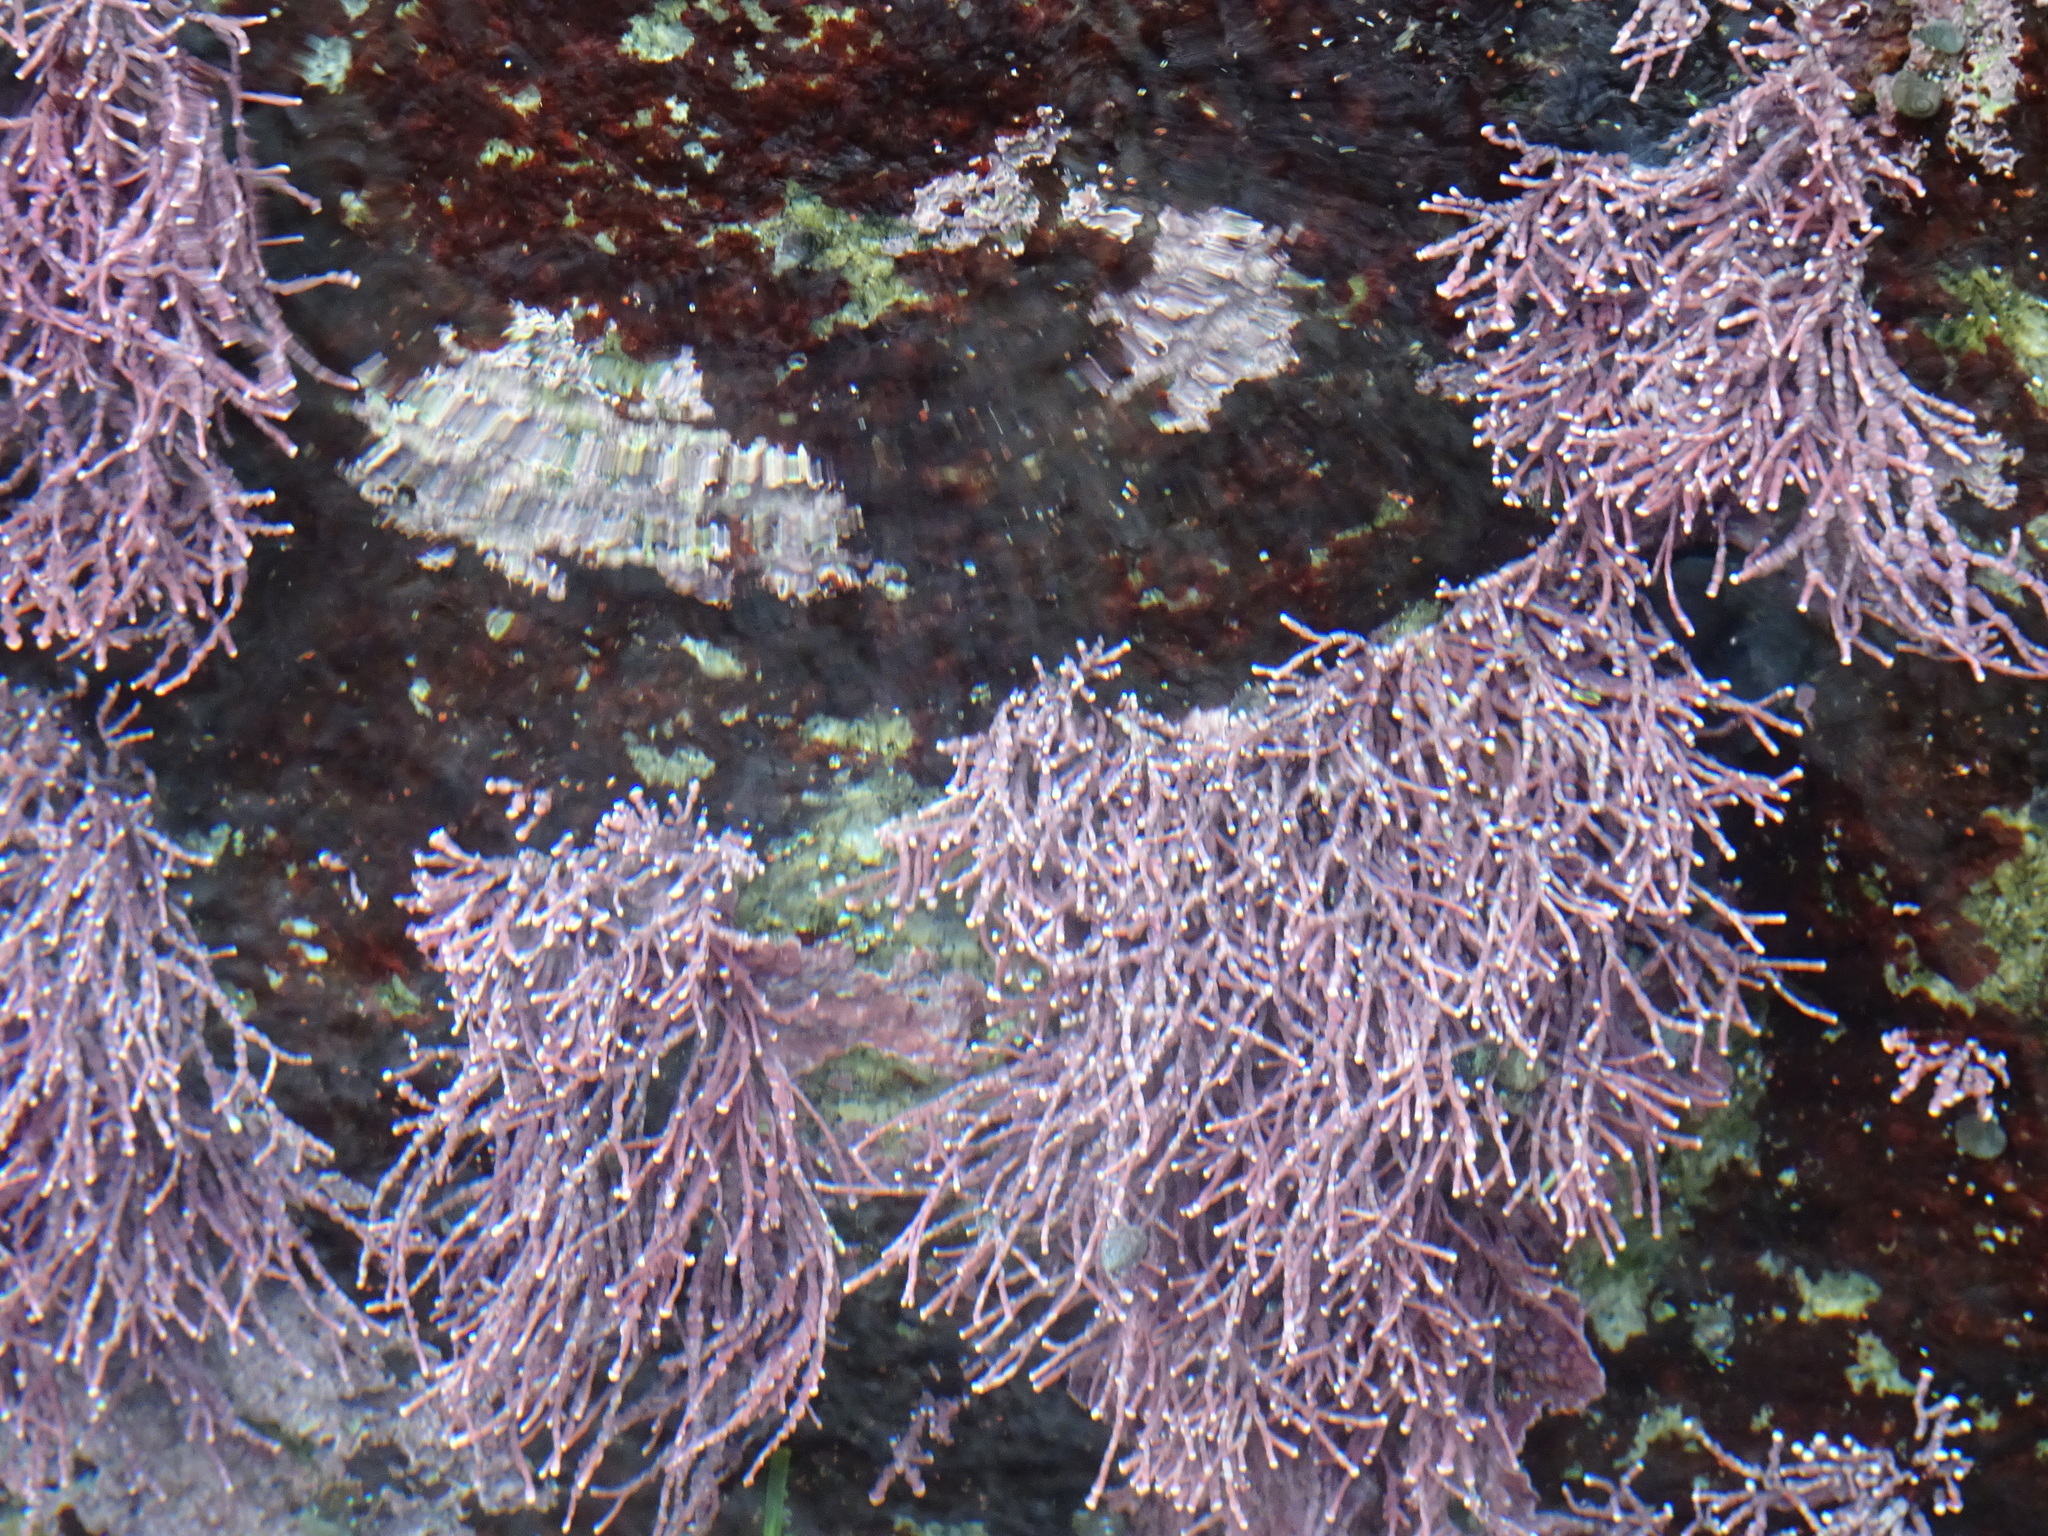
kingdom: Plantae
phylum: Rhodophyta
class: Florideophyceae
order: Corallinales
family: Corallinaceae
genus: Calliarthron
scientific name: Calliarthron tuberculosum
